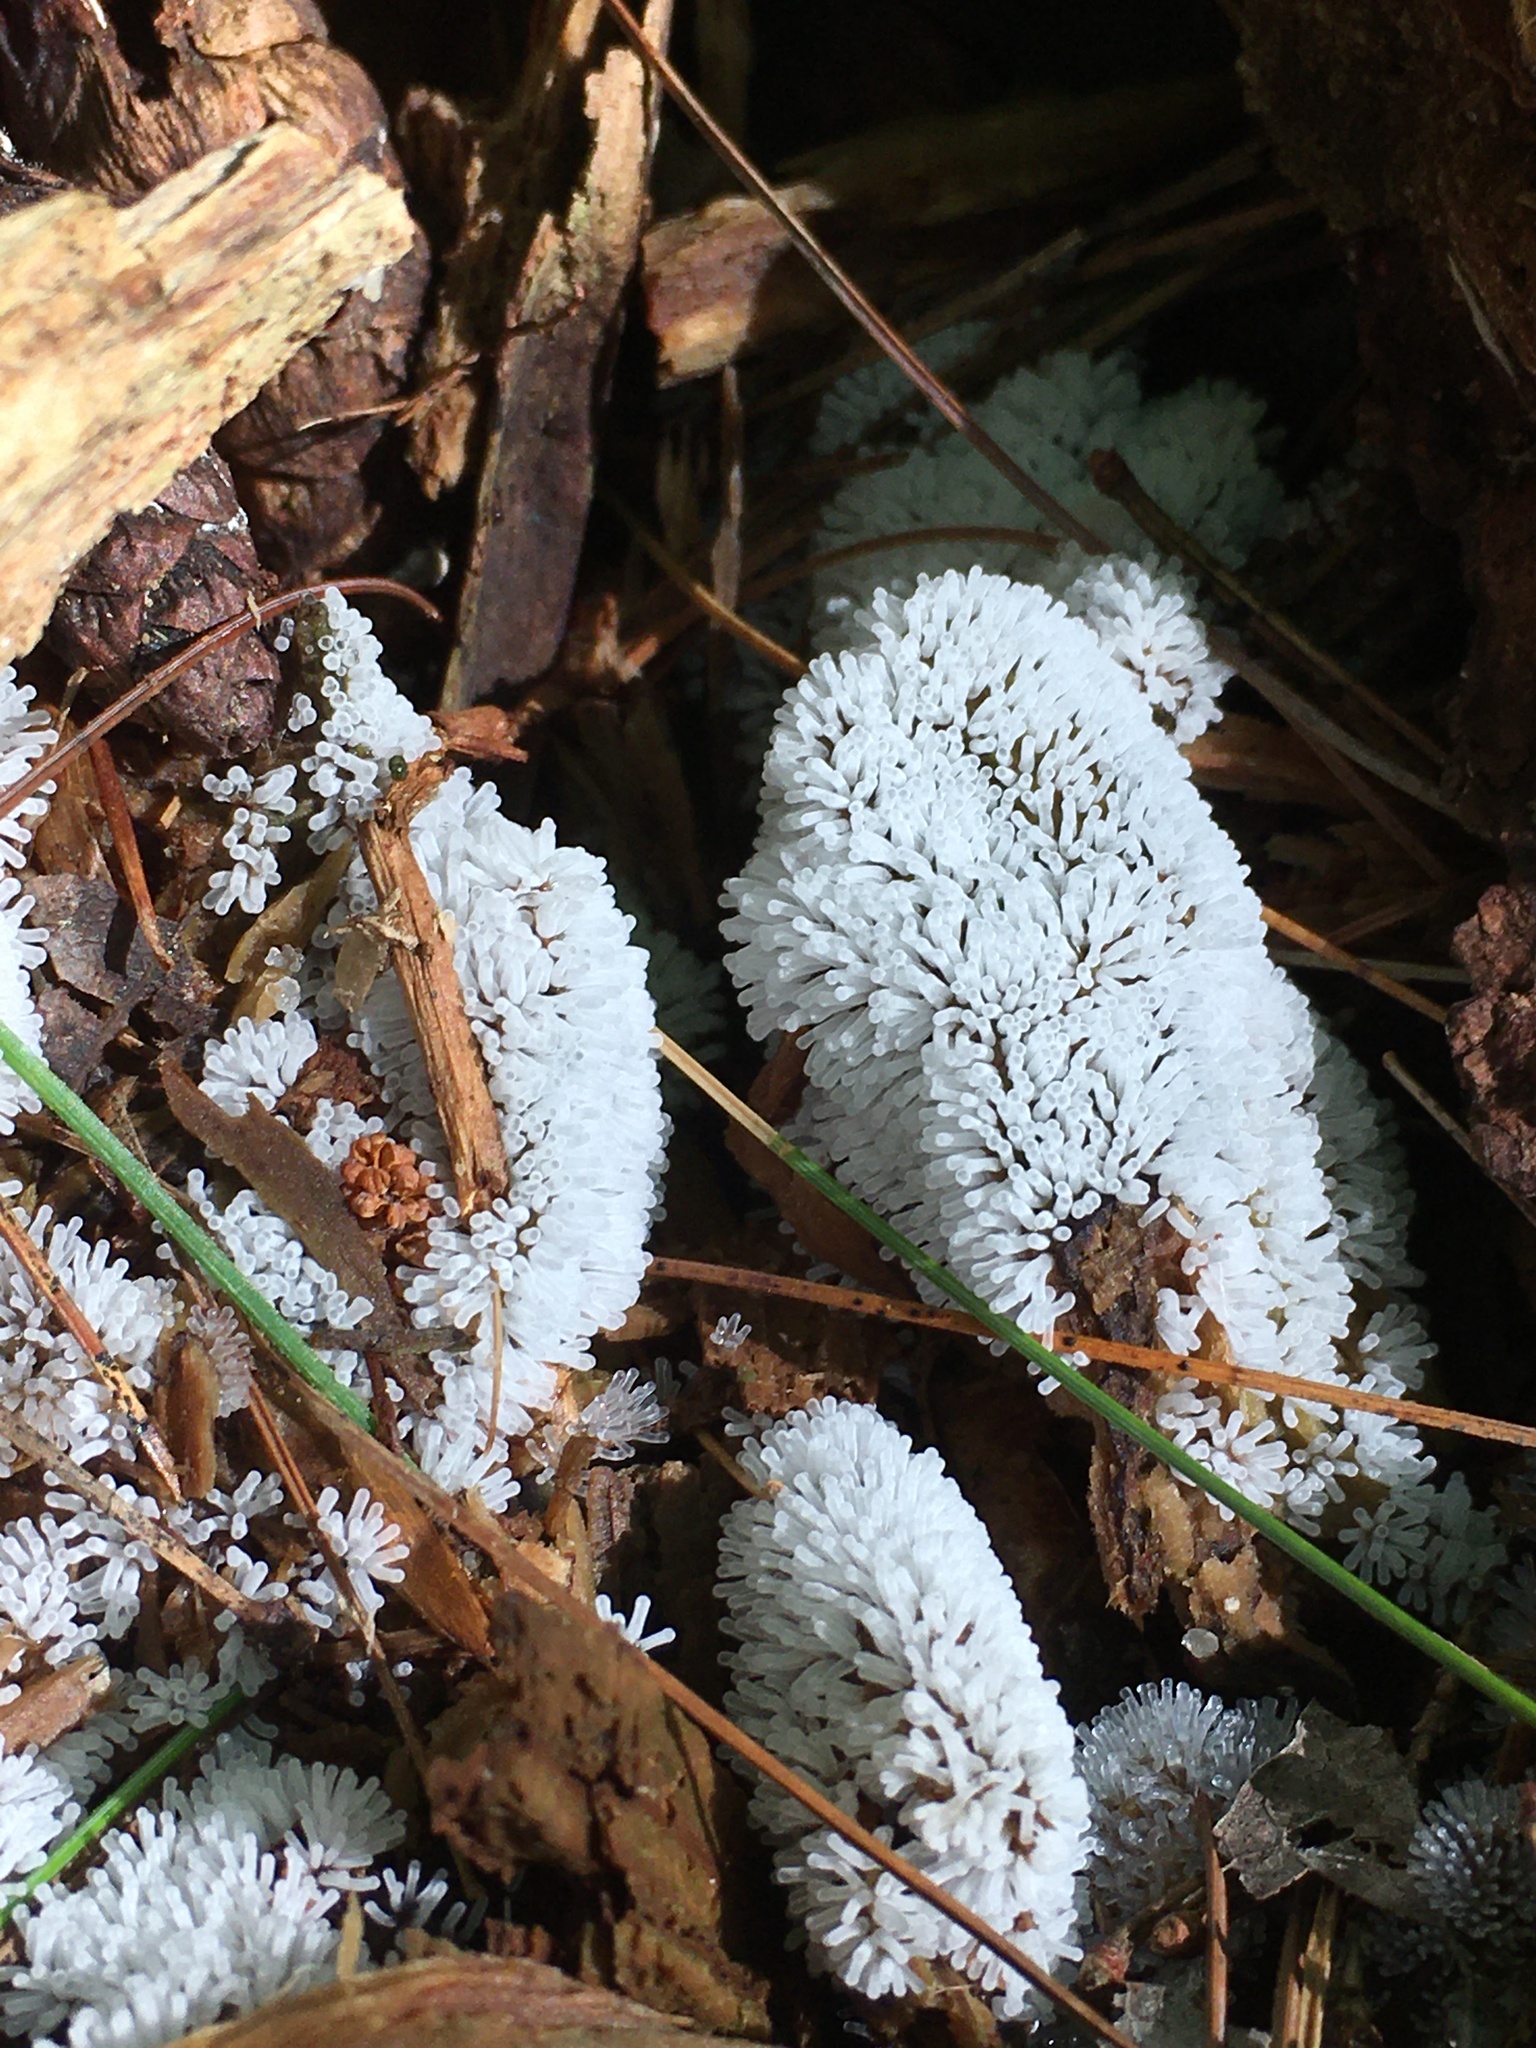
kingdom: Protozoa
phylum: Mycetozoa
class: Protosteliomycetes
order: Ceratiomyxales
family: Ceratiomyxaceae
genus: Ceratiomyxa
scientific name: Ceratiomyxa fruticulosa
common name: Honeycomb coral slime mold
